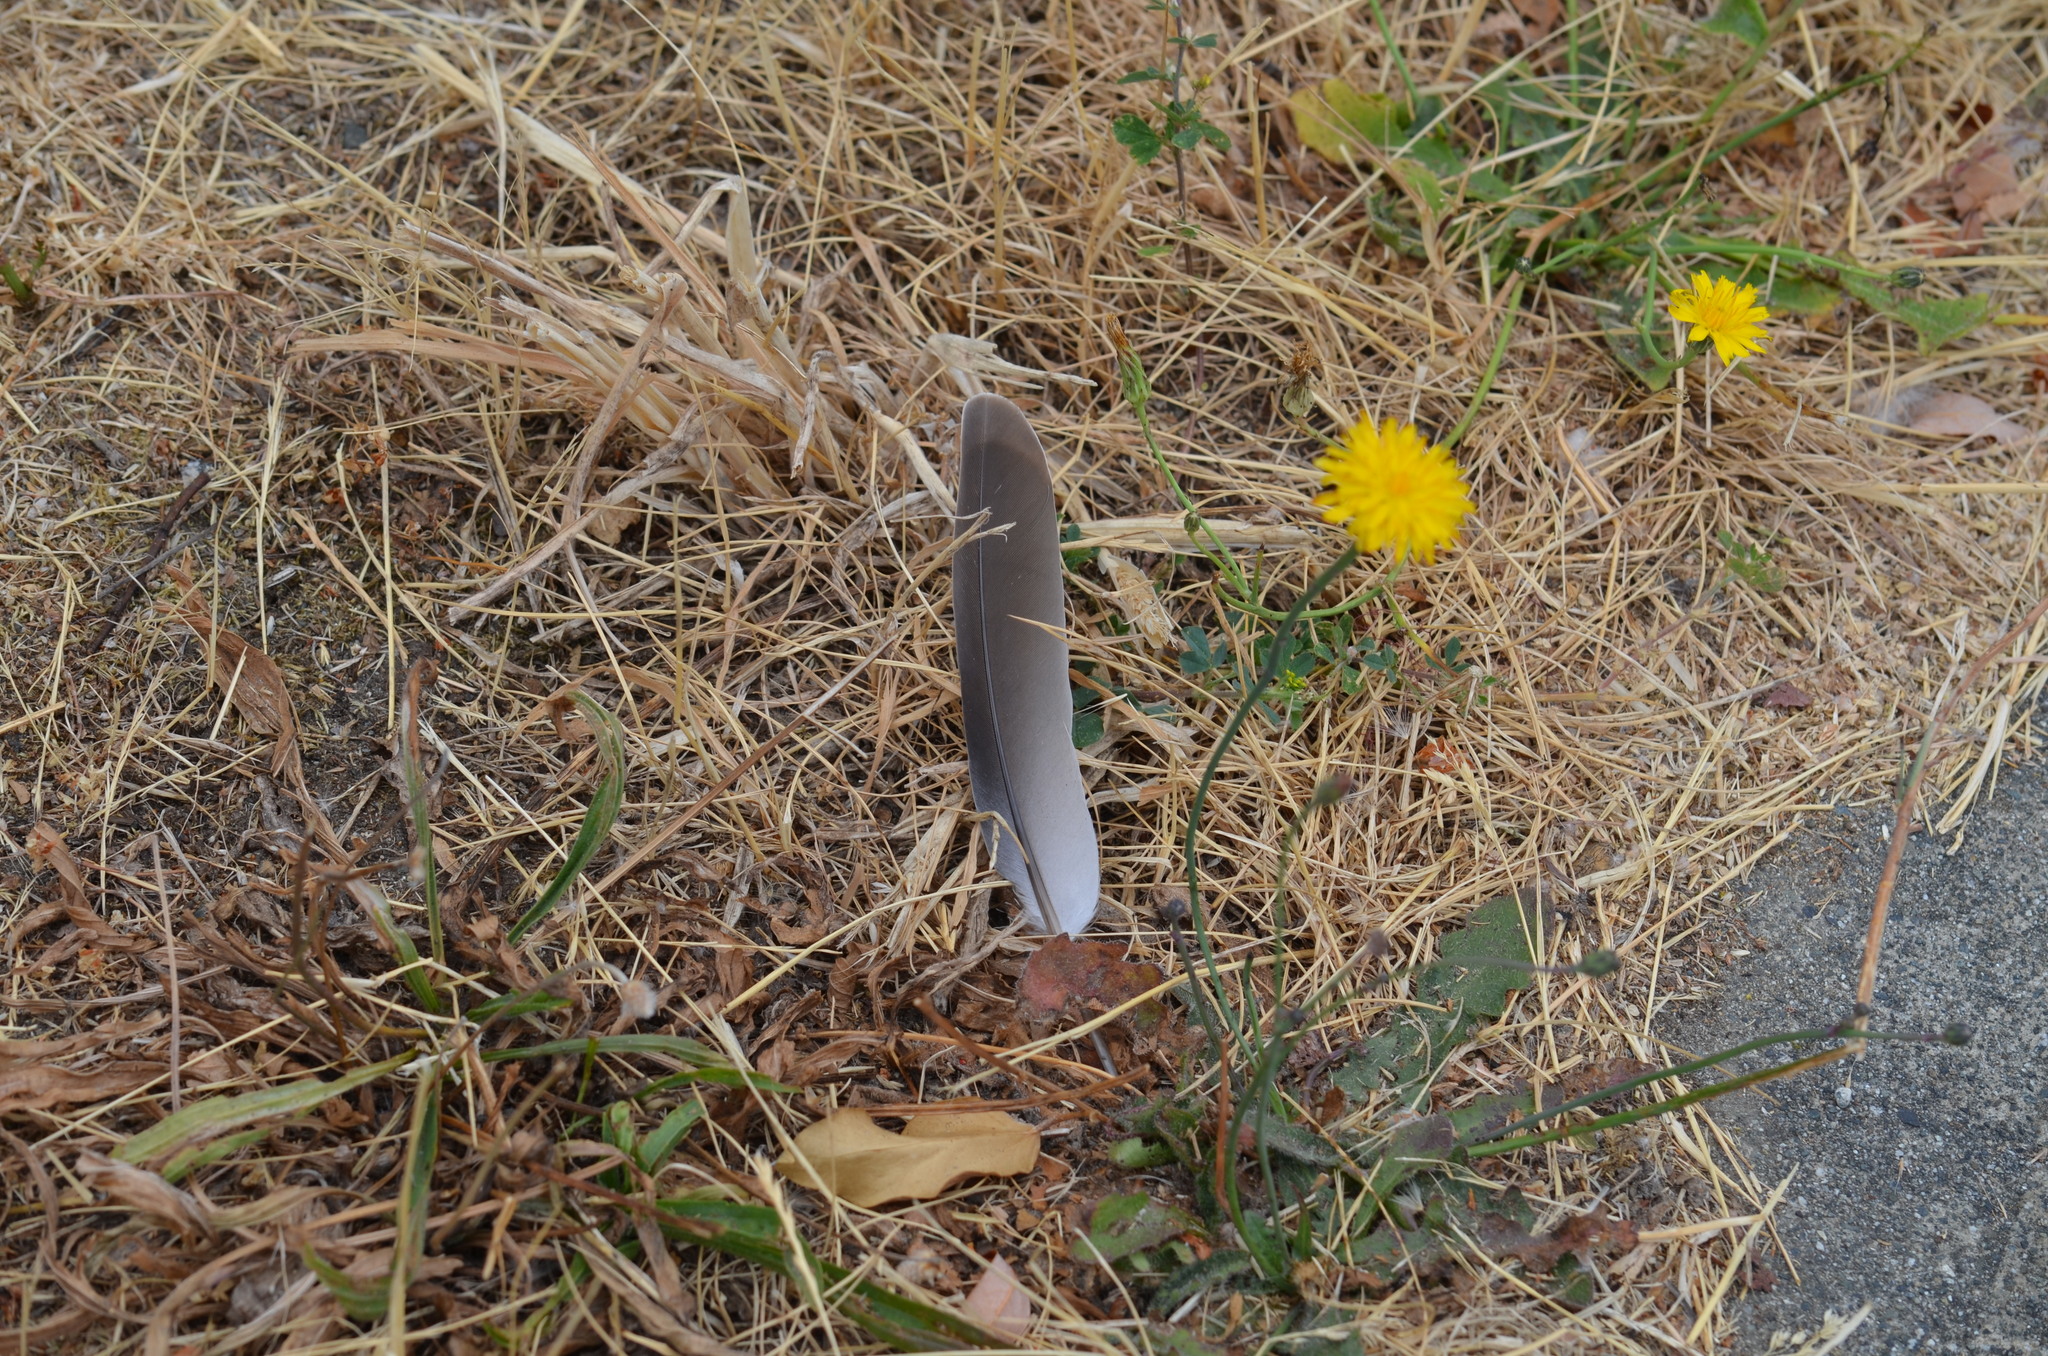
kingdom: Animalia
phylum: Chordata
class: Aves
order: Columbiformes
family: Columbidae
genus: Streptopelia
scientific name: Streptopelia decaocto
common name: Eurasian collared dove
